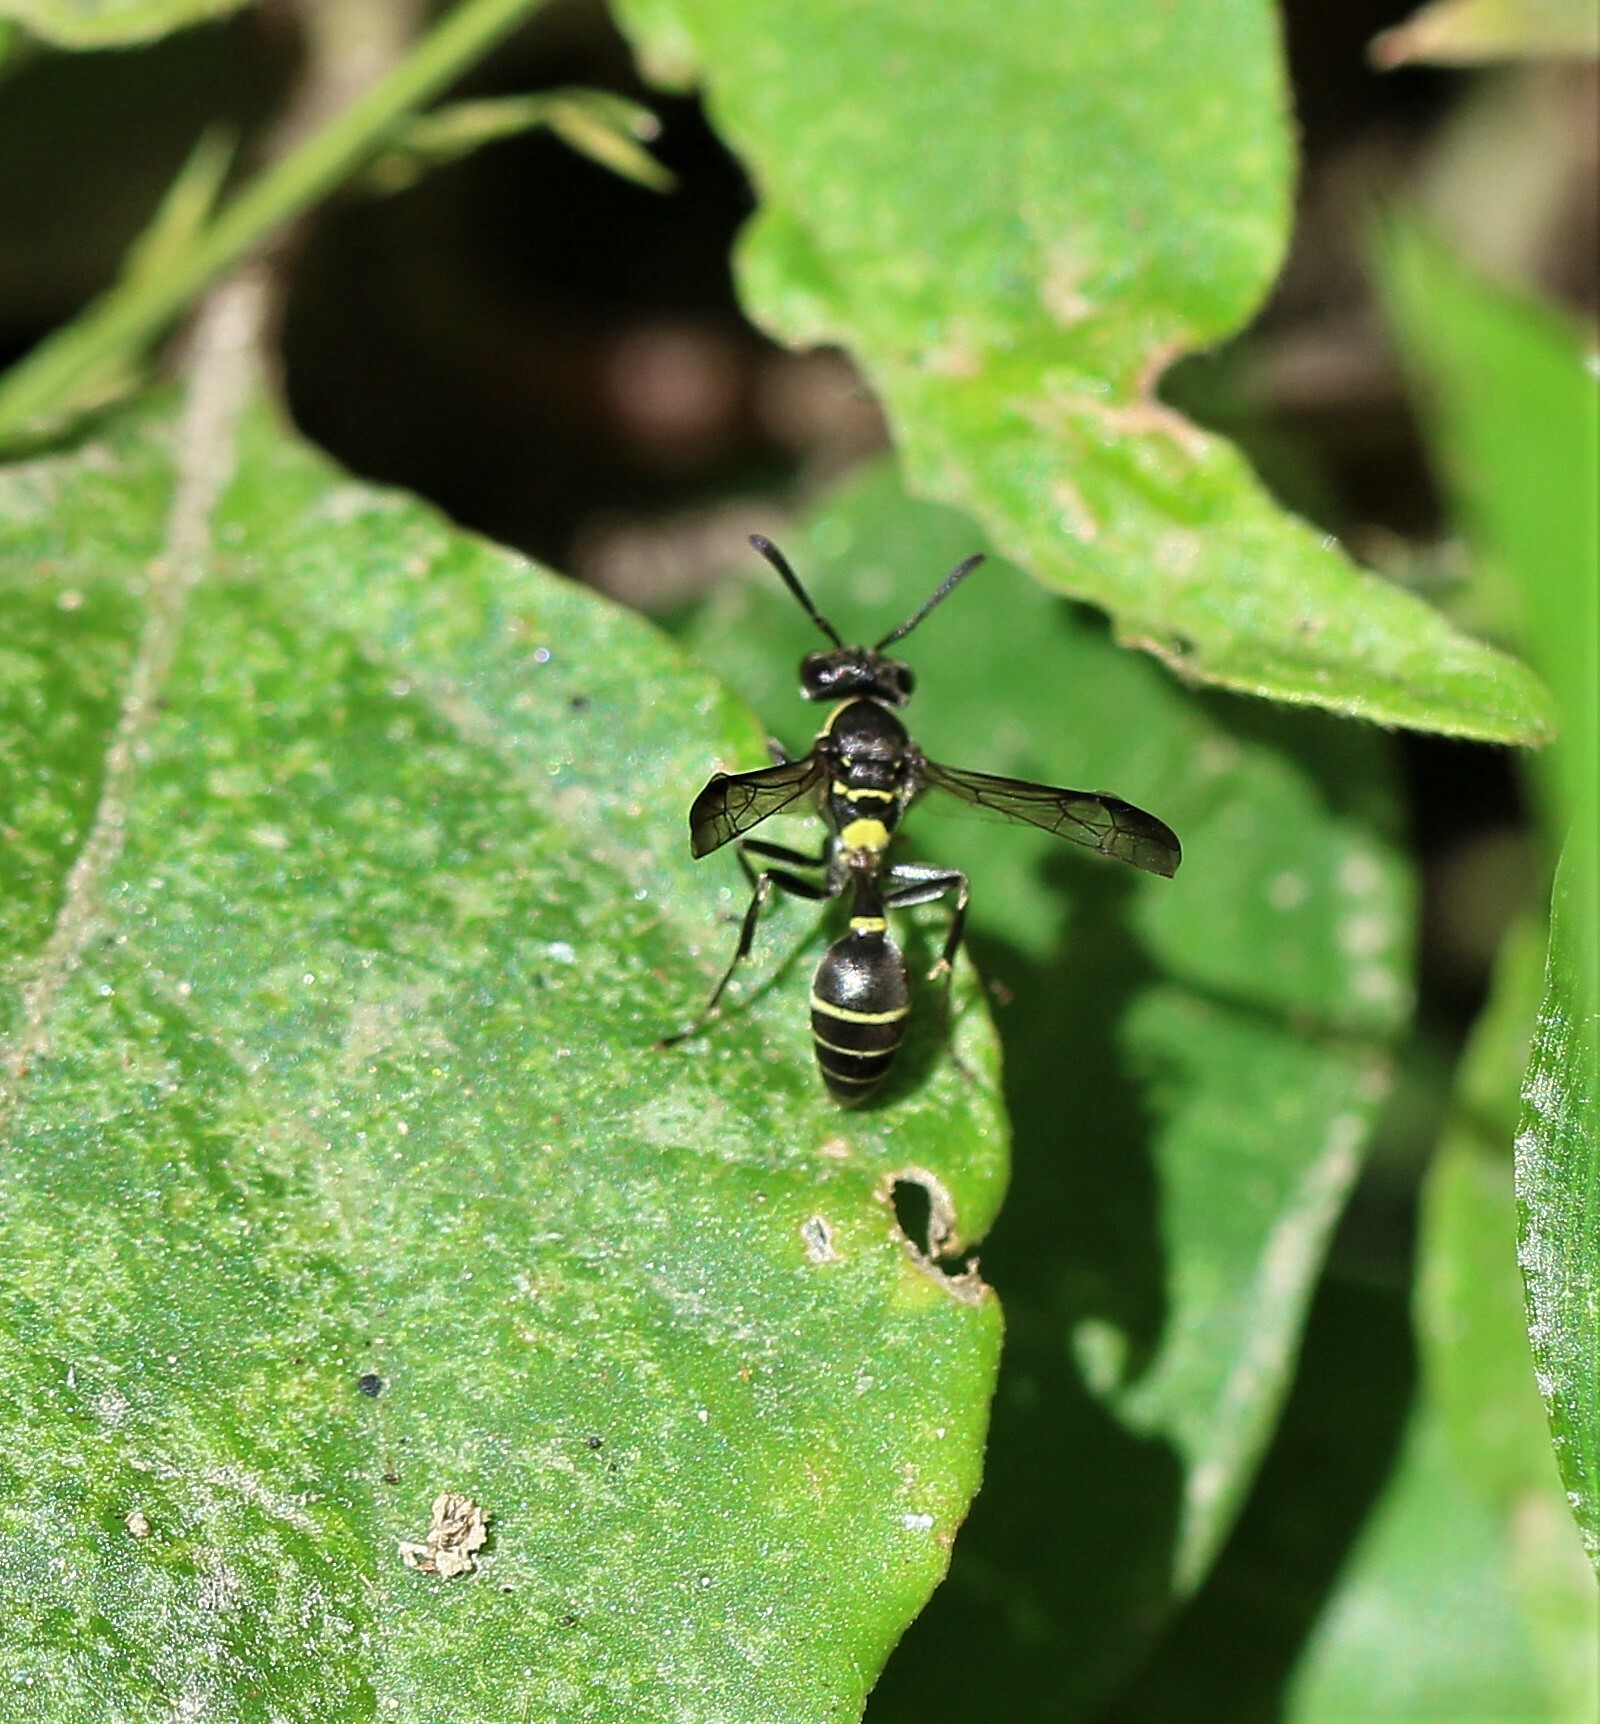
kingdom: Animalia
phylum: Arthropoda
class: Insecta
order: Hymenoptera
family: Eumenidae
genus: Polybia
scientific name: Polybia occidentalis
